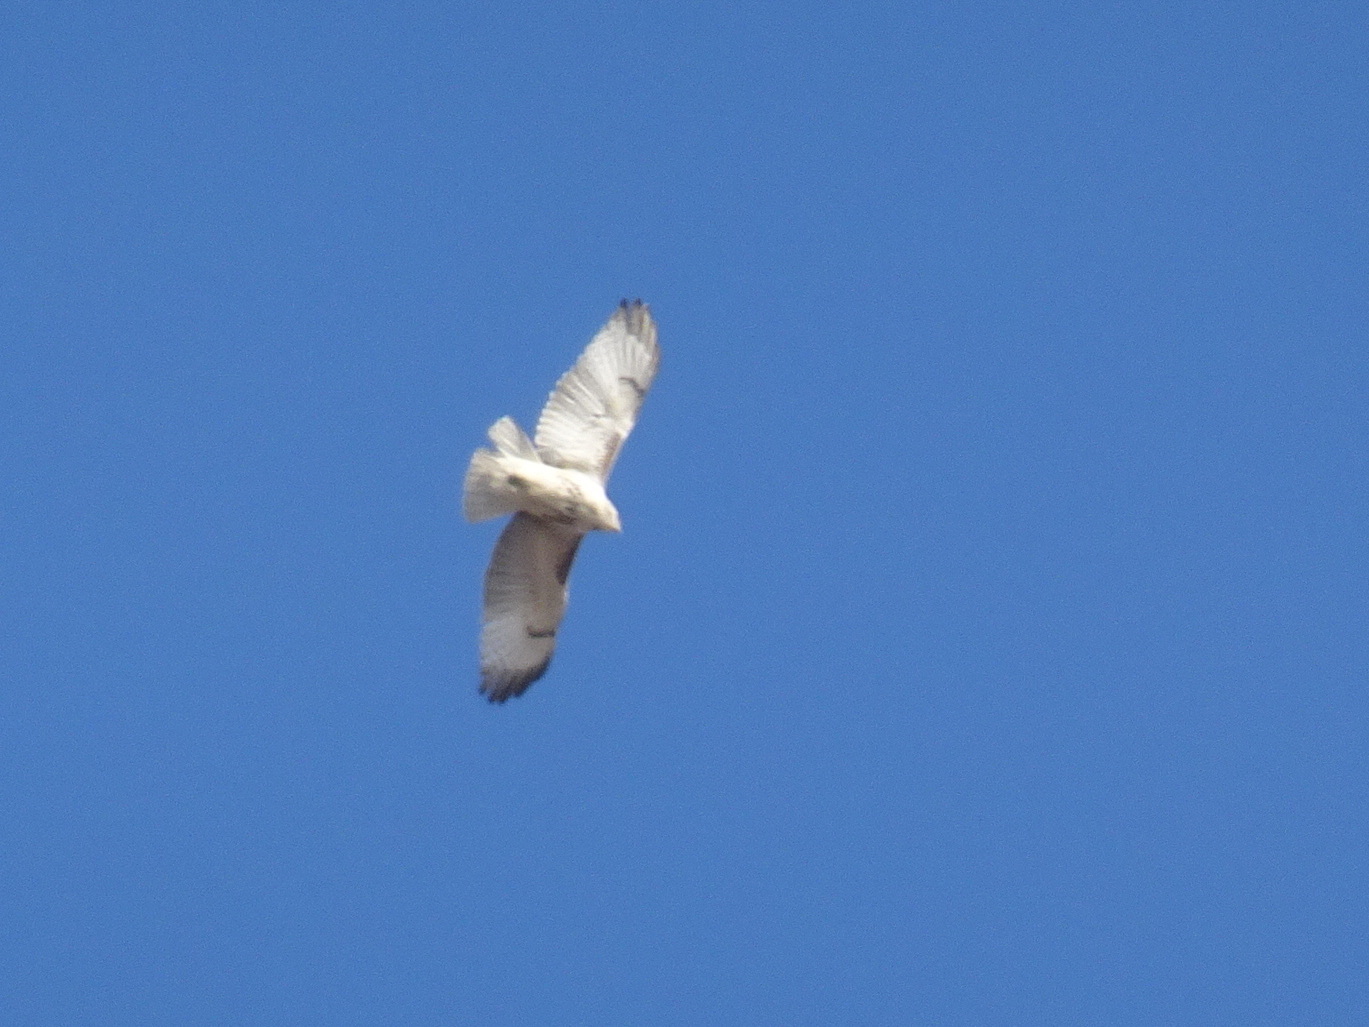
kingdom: Animalia
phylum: Chordata
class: Aves
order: Accipitriformes
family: Accipitridae
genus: Buteo
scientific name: Buteo jamaicensis
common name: Red-tailed hawk
